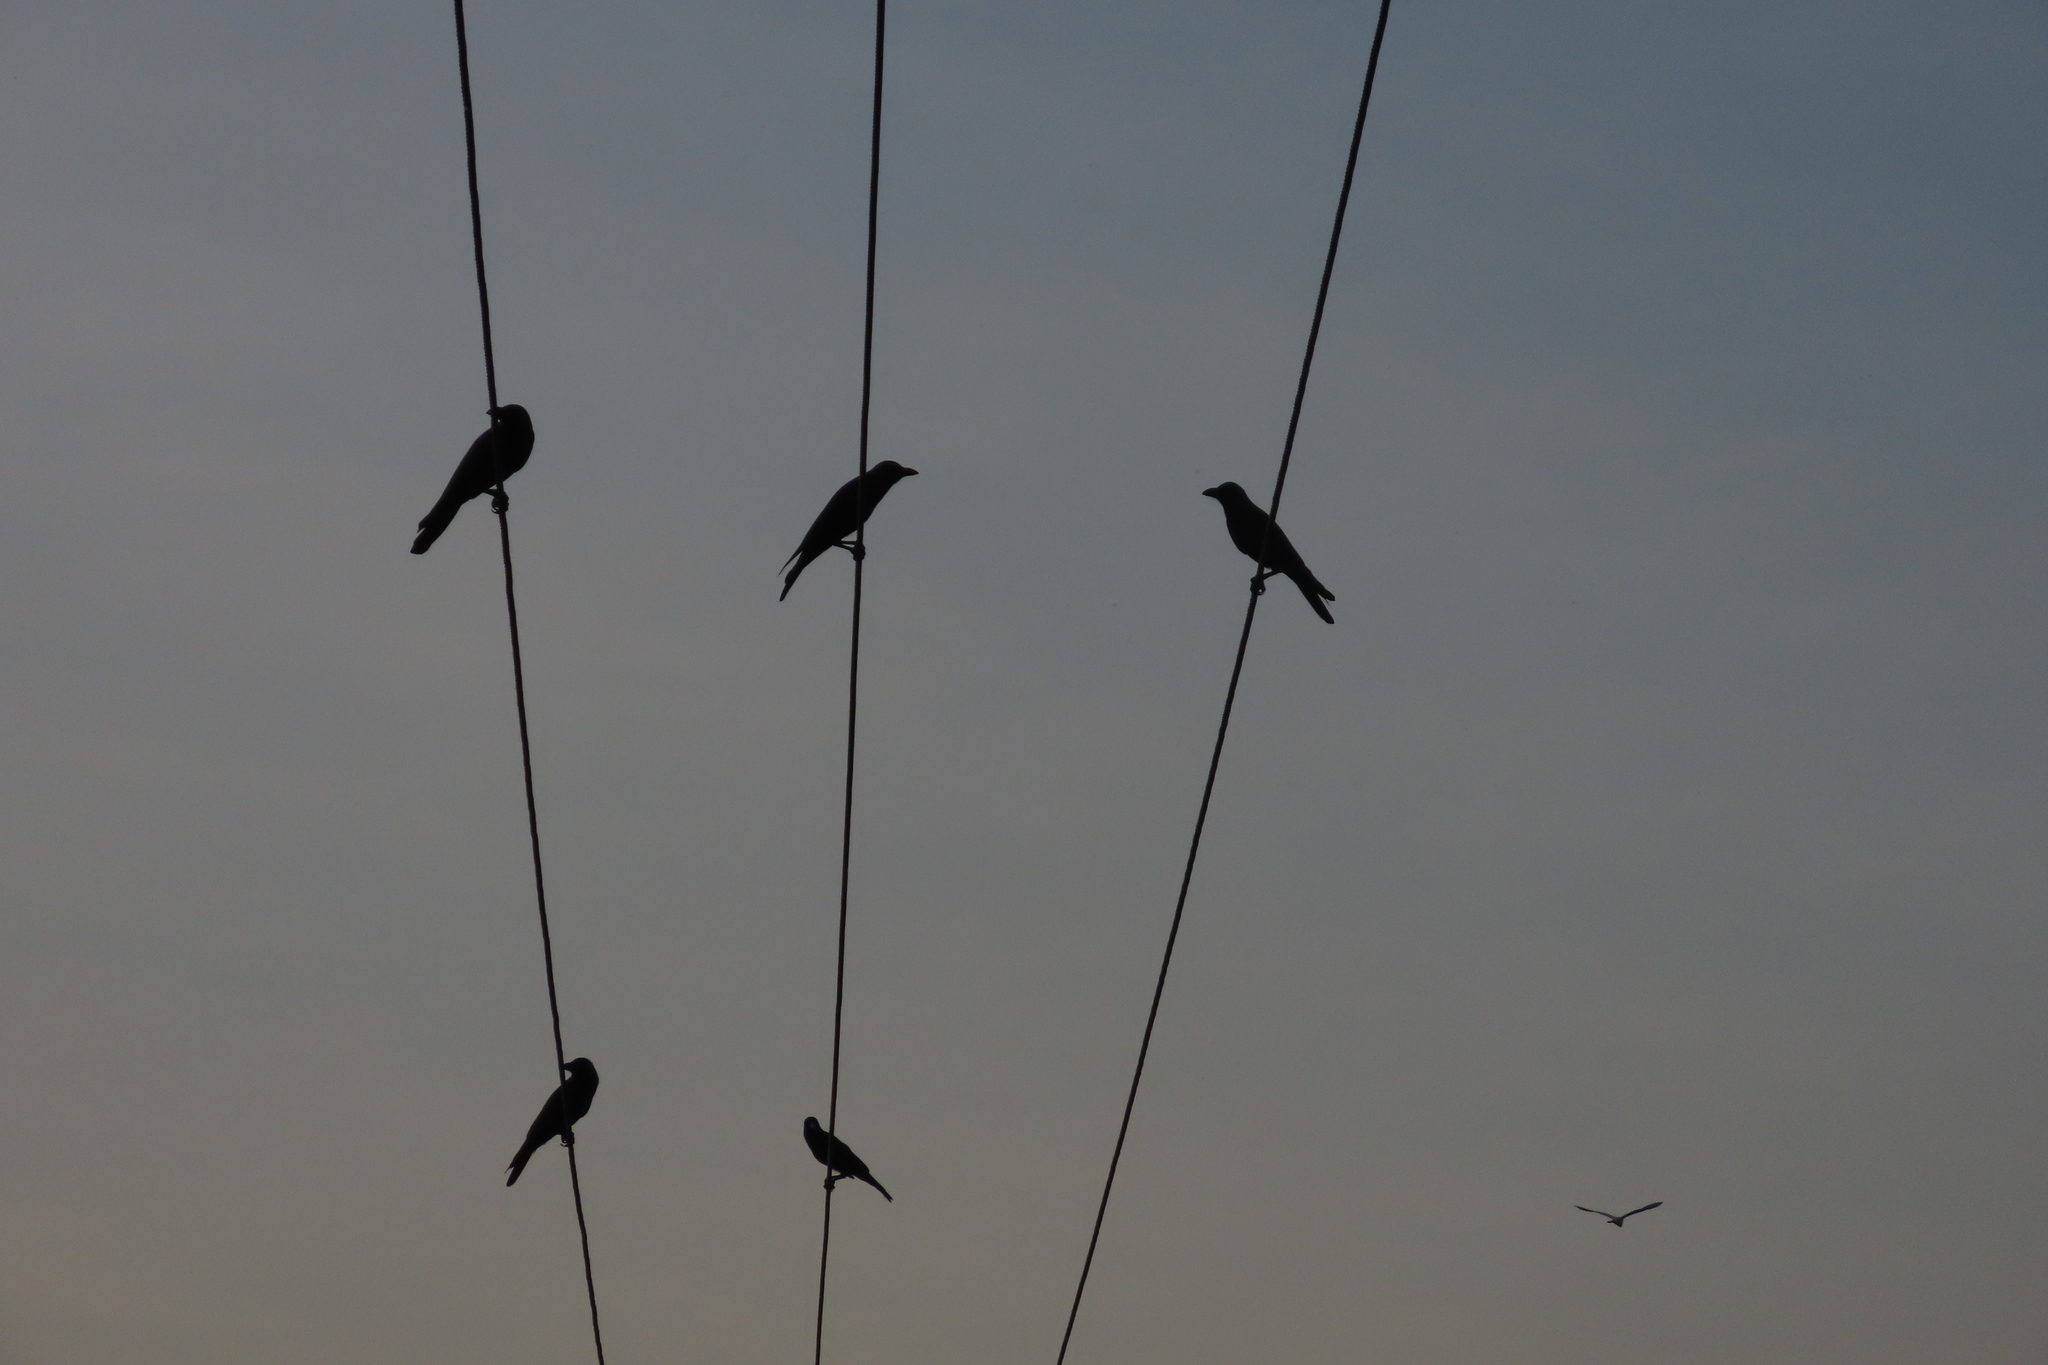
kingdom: Animalia
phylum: Chordata
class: Aves
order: Passeriformes
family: Corvidae
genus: Corvus
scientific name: Corvus splendens
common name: House crow
